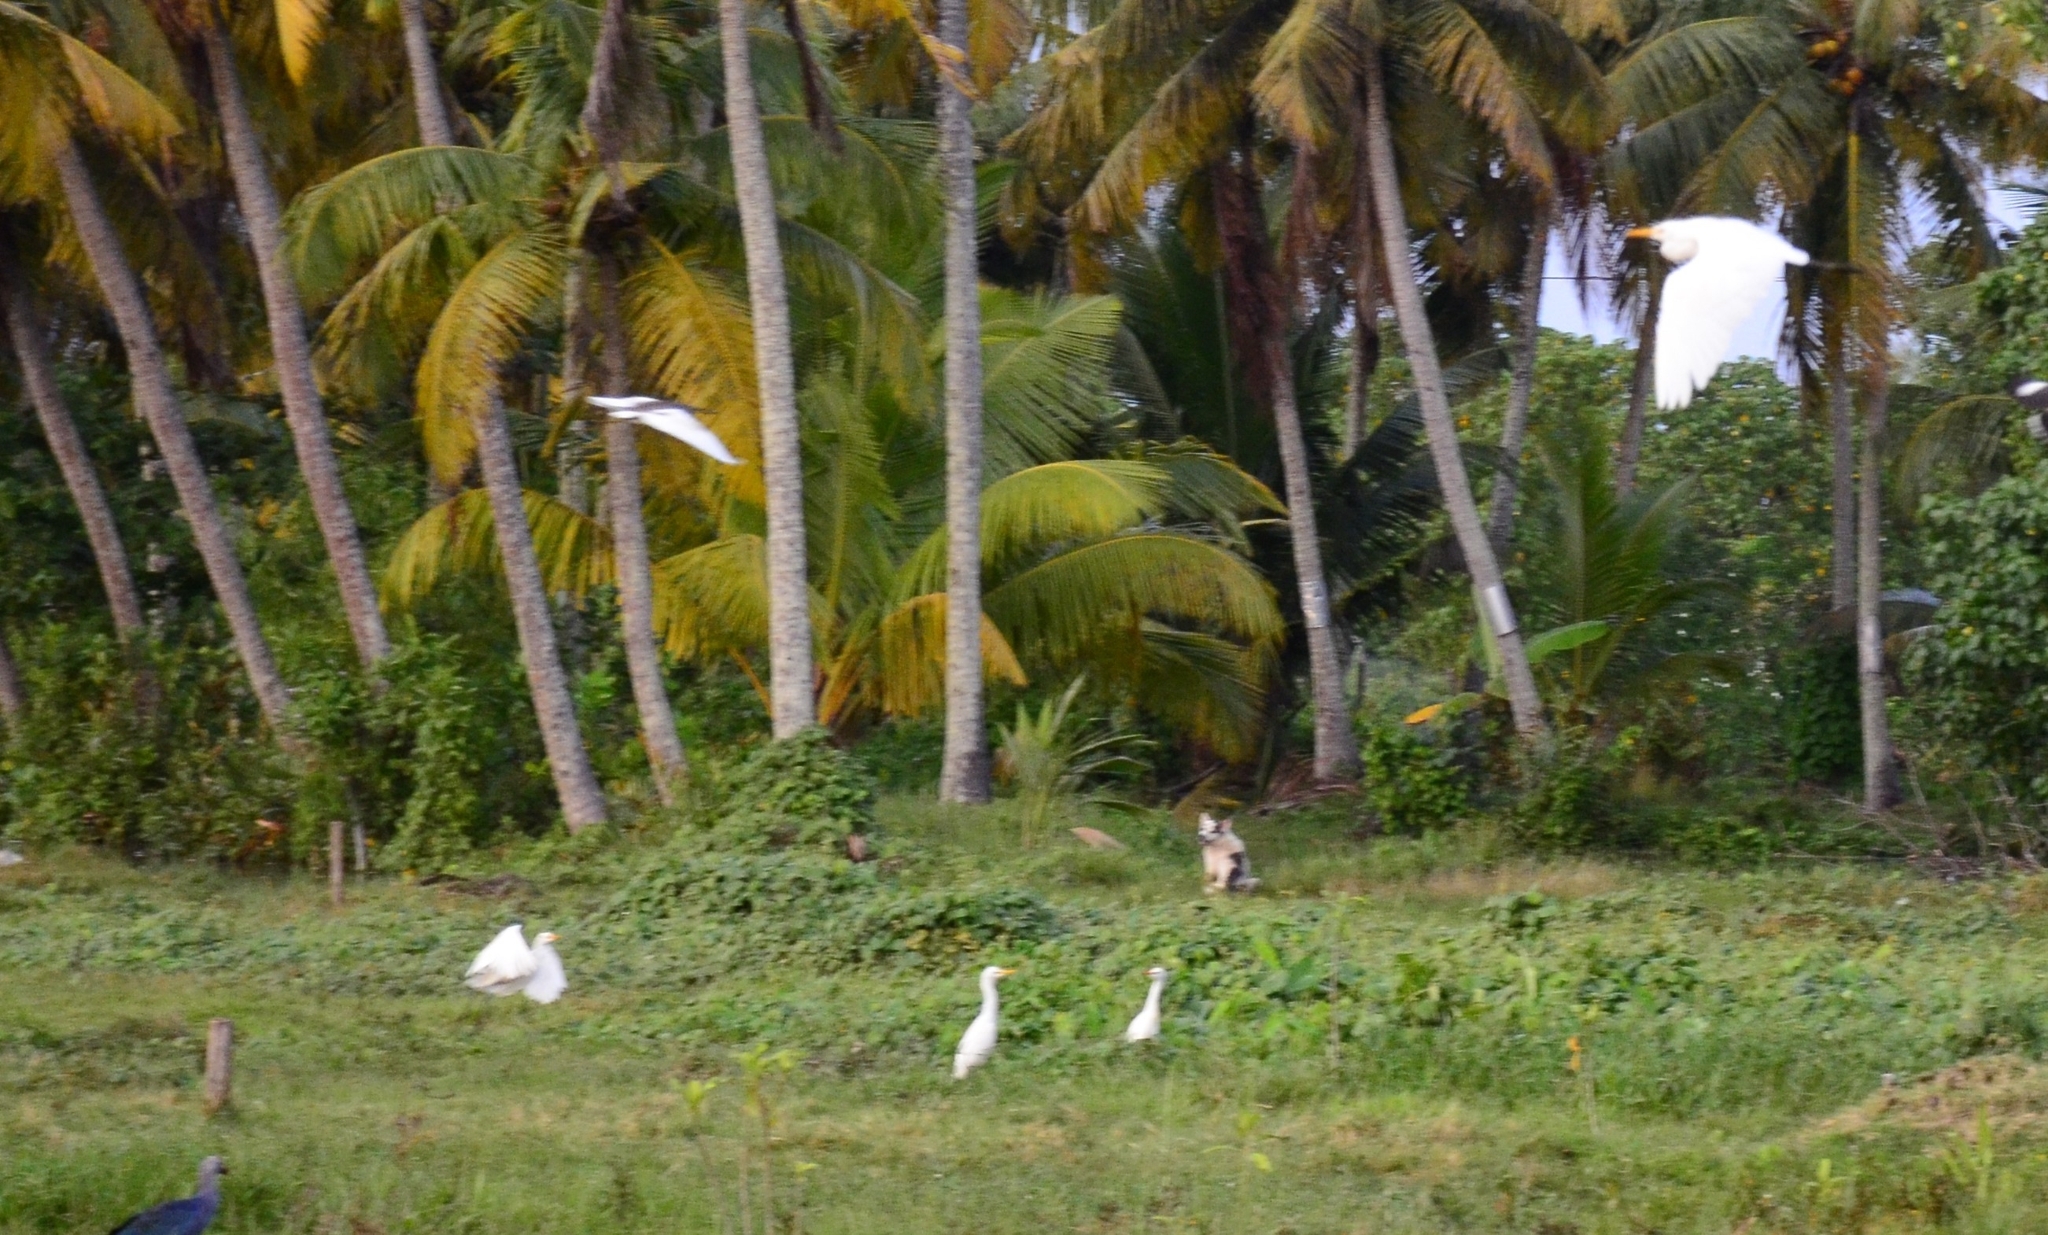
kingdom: Animalia
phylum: Chordata
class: Aves
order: Pelecaniformes
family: Ardeidae
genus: Bubulcus
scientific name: Bubulcus coromandus
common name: Eastern cattle egret
